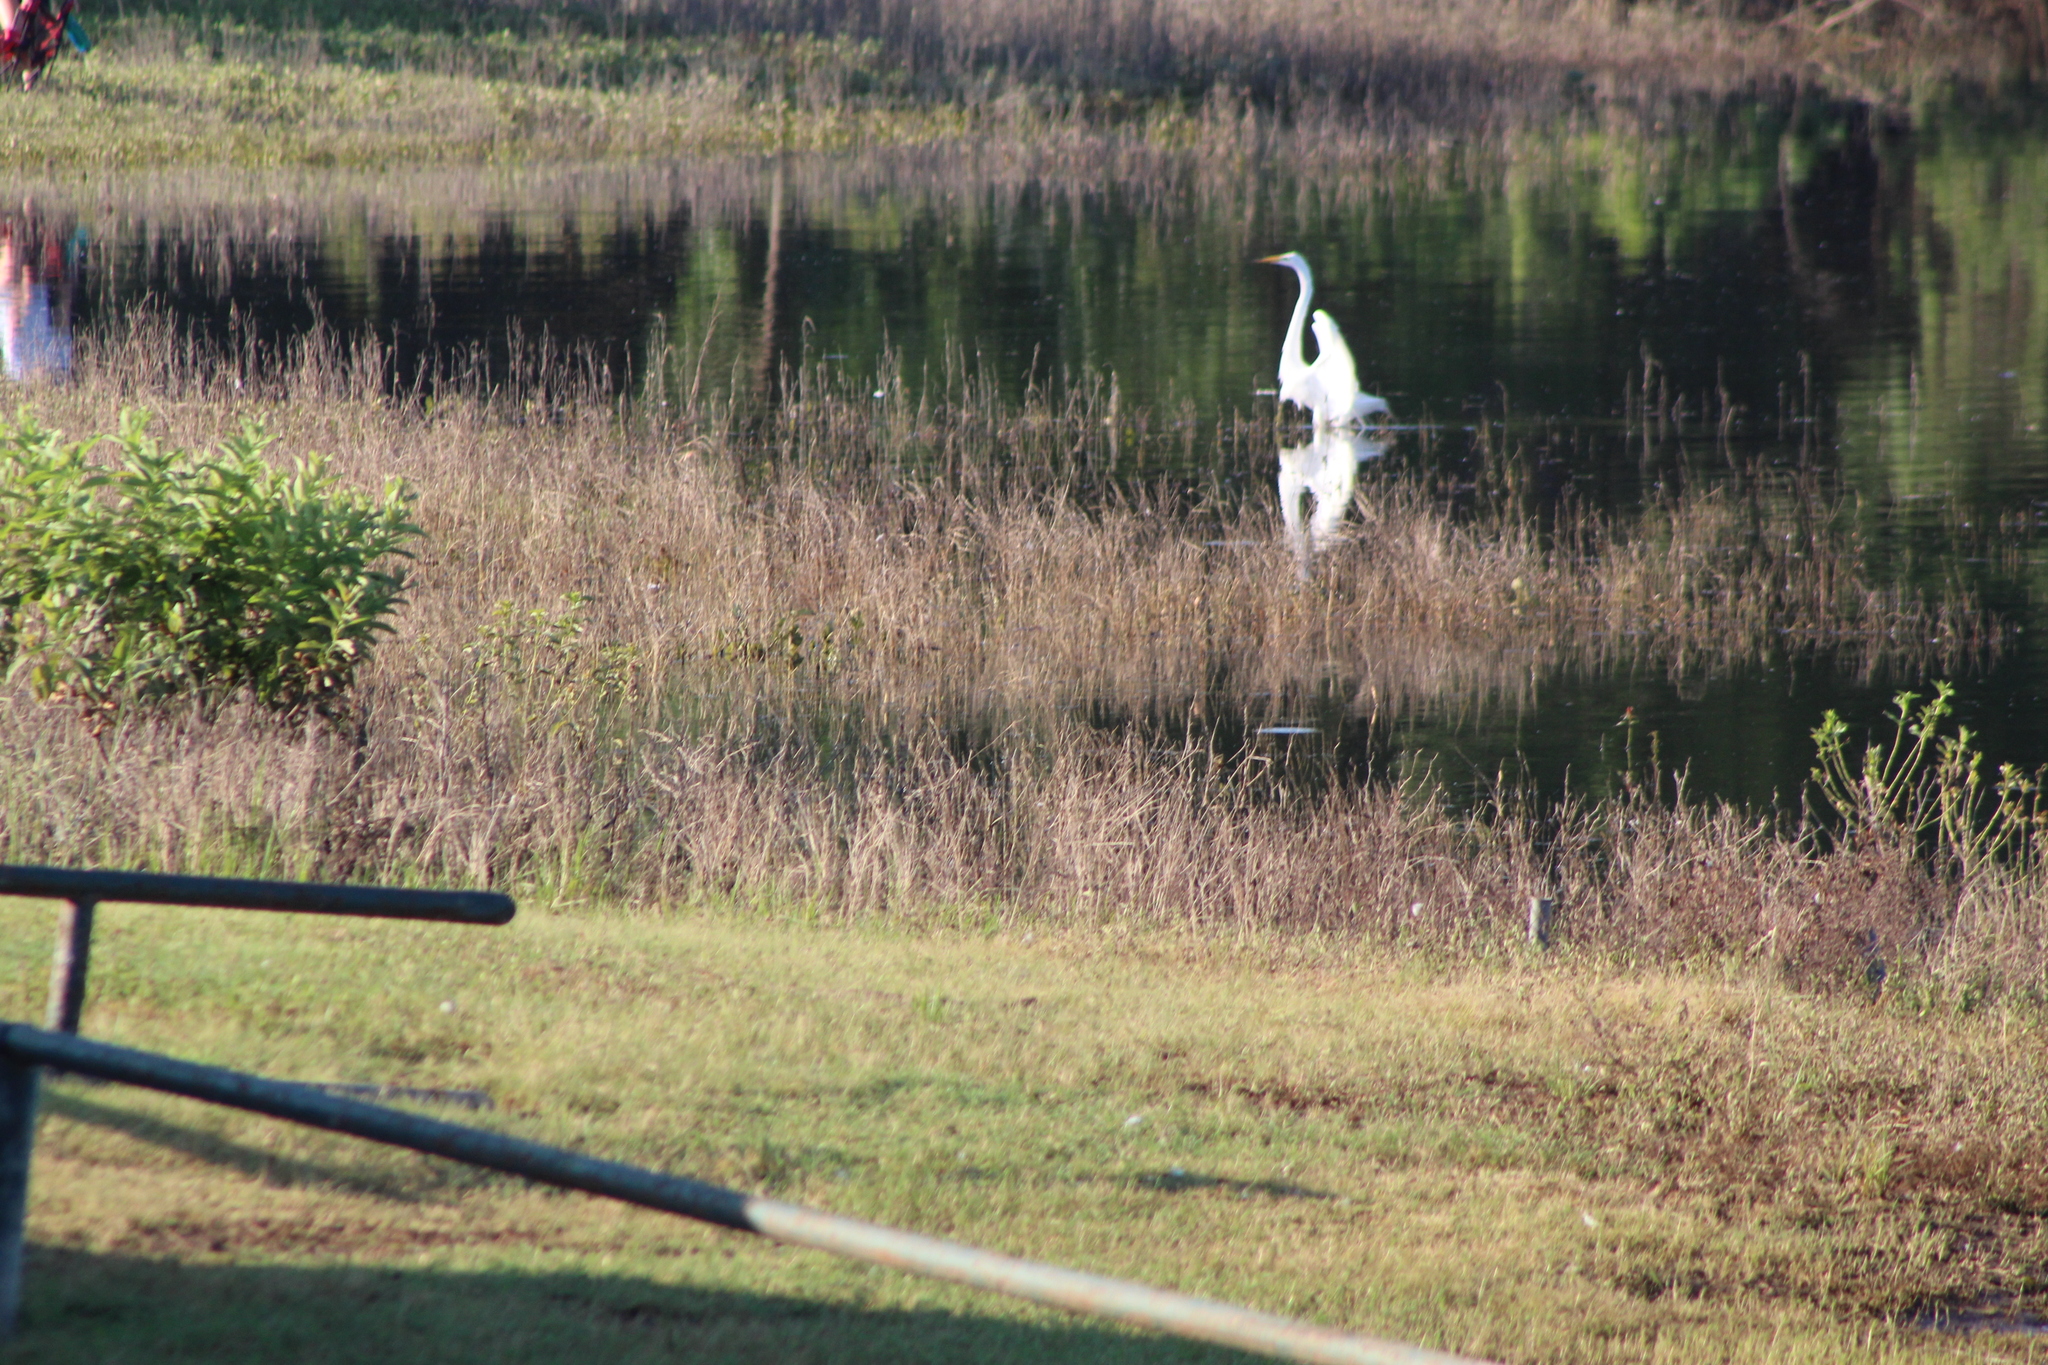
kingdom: Animalia
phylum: Chordata
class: Aves
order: Pelecaniformes
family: Ardeidae
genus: Ardea
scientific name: Ardea alba
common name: Great egret
